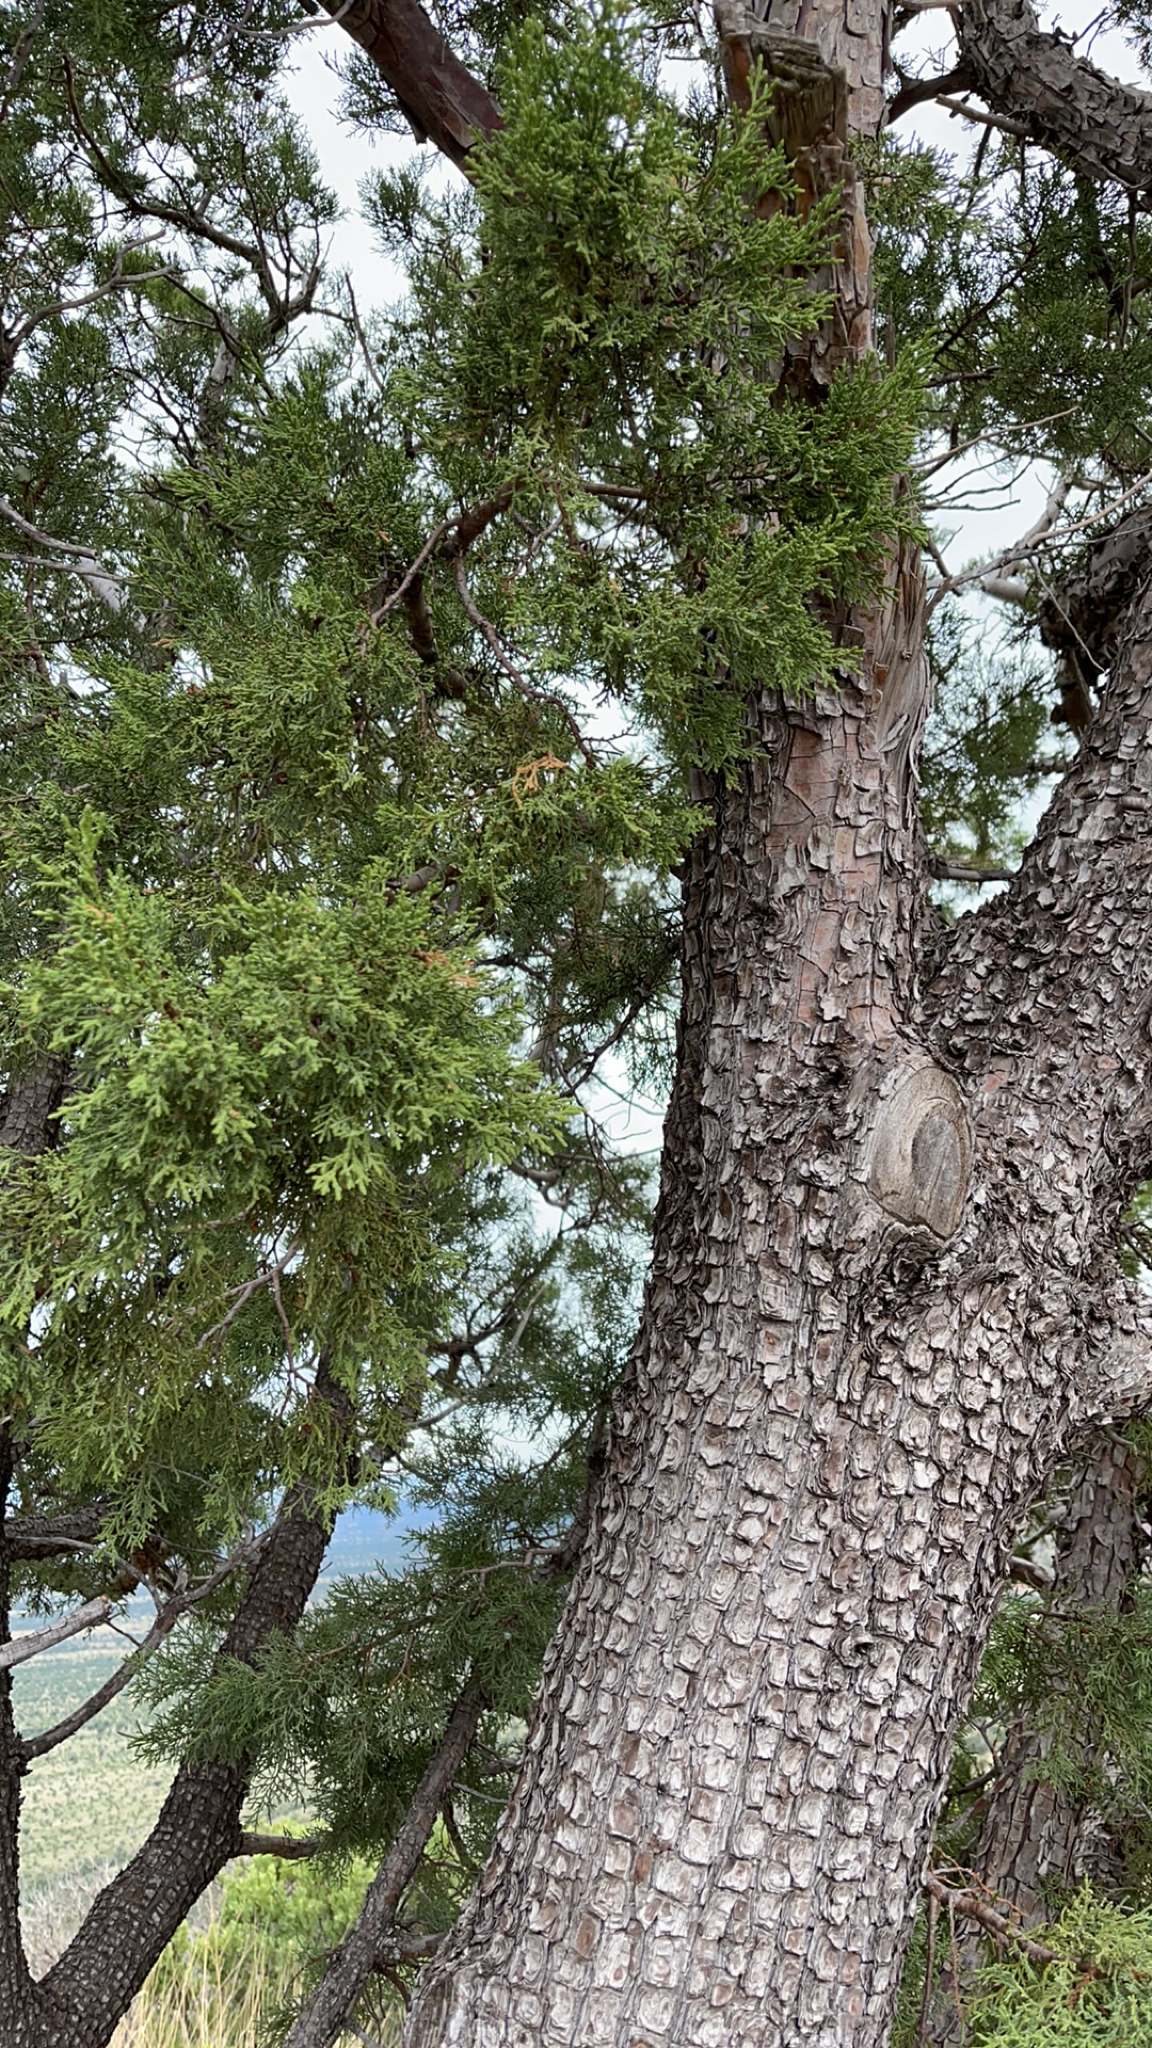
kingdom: Plantae
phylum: Tracheophyta
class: Pinopsida
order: Pinales
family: Cupressaceae
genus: Juniperus
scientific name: Juniperus deppeana
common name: Alligator juniper
